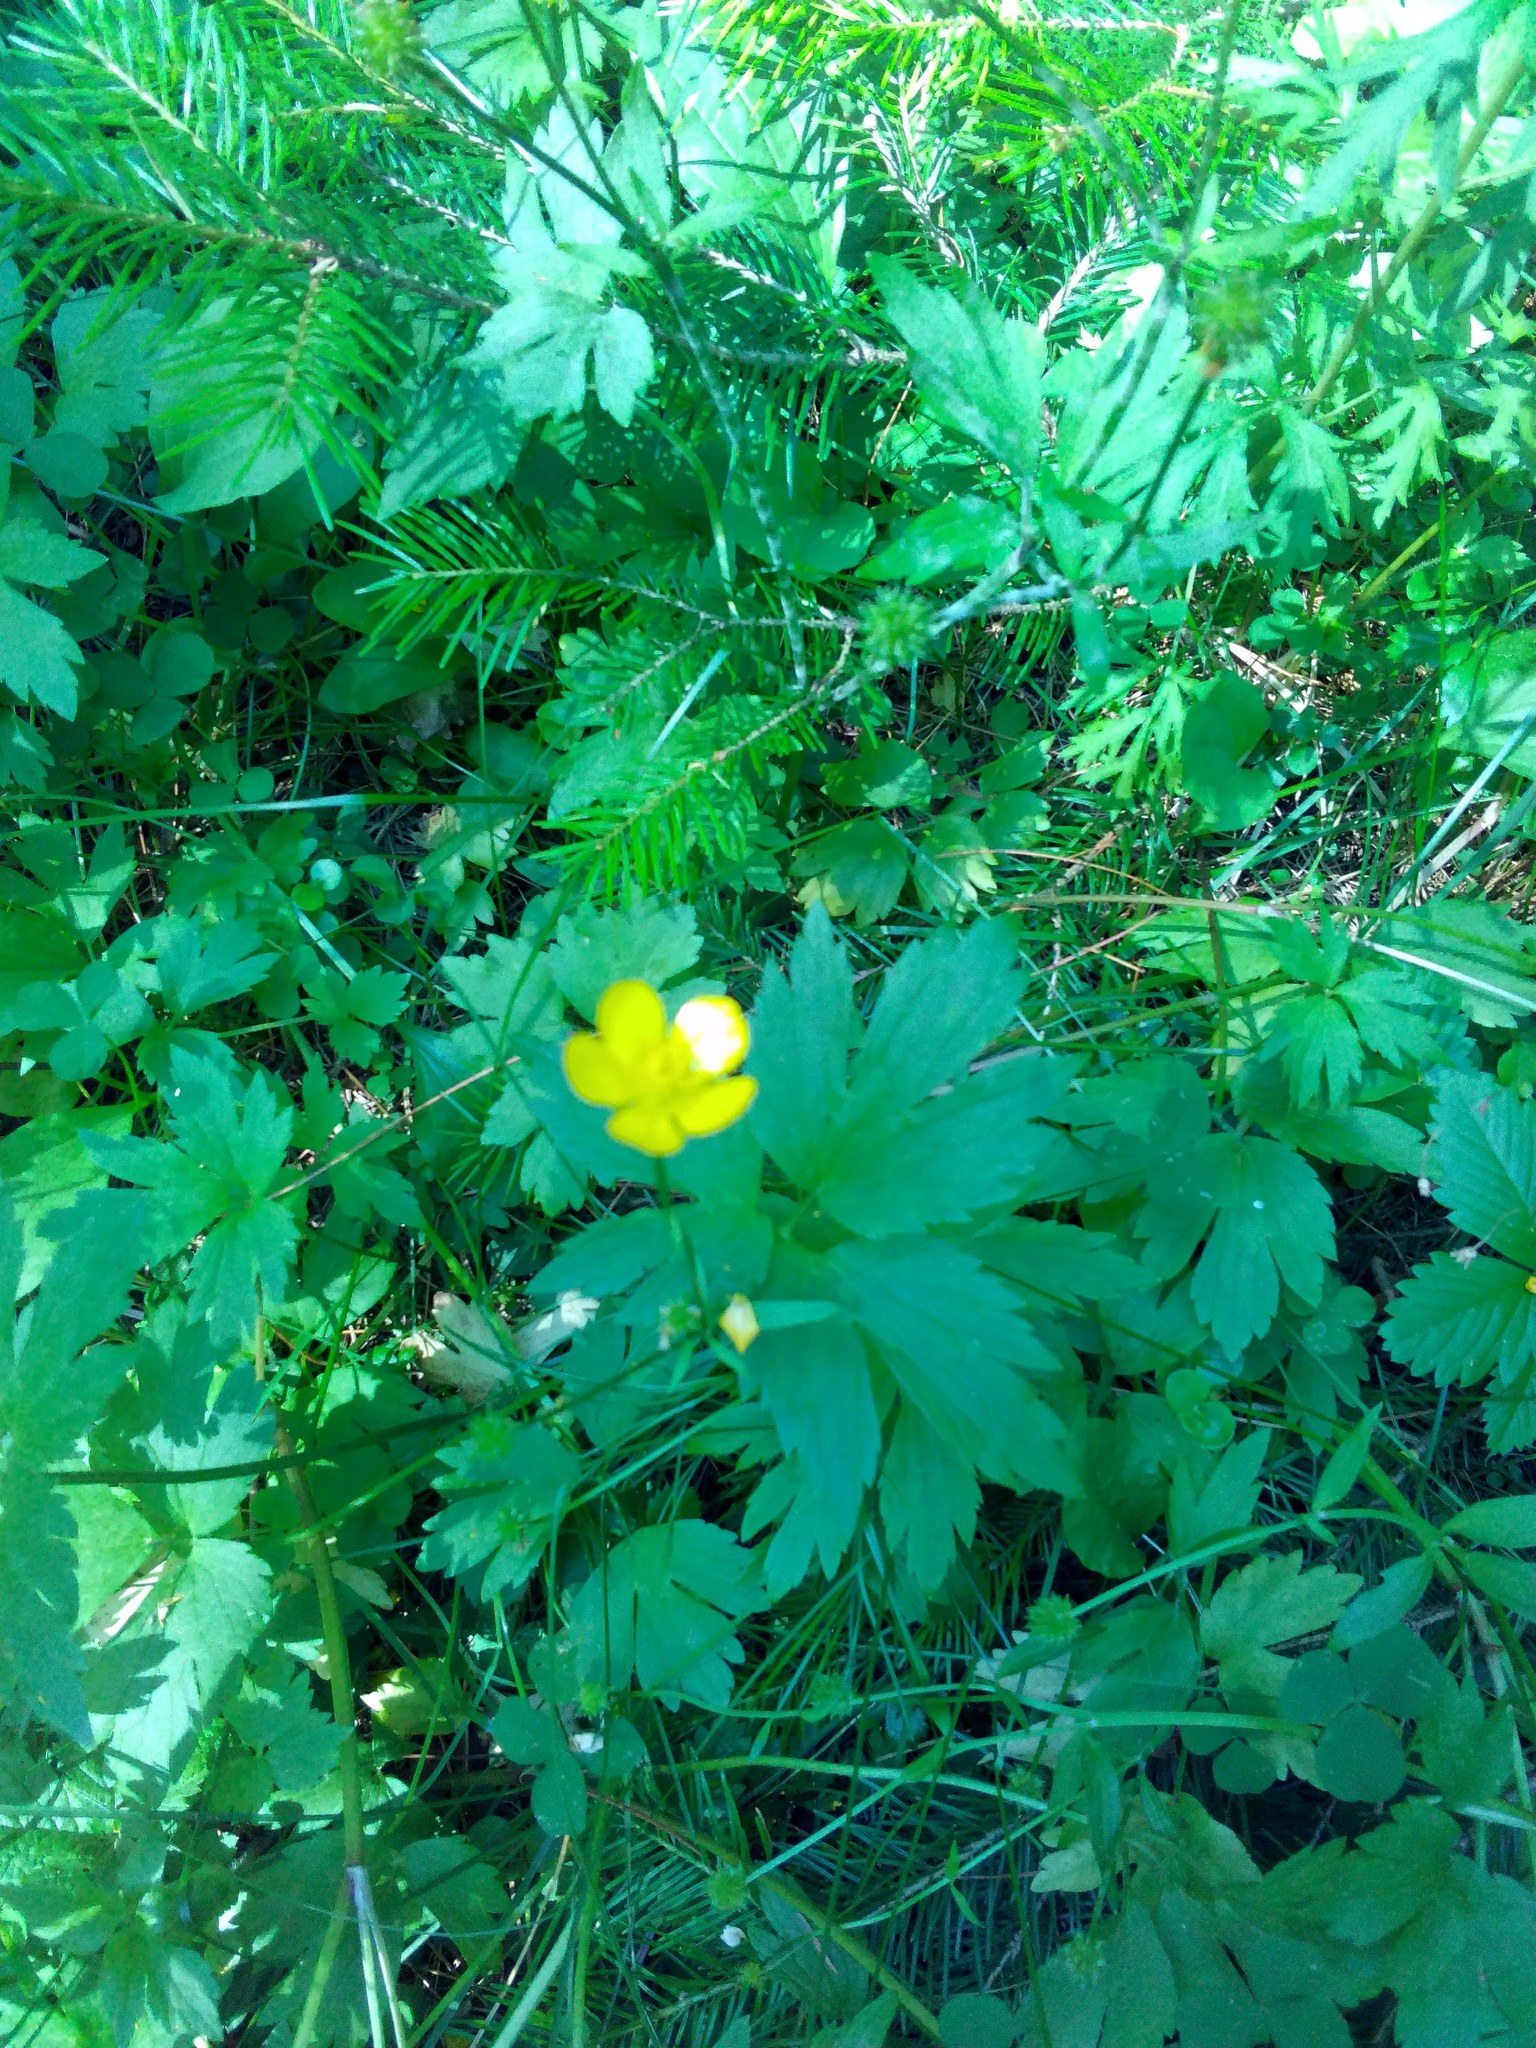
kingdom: Plantae
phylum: Tracheophyta
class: Magnoliopsida
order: Ranunculales
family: Ranunculaceae
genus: Ranunculus
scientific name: Ranunculus repens
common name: Creeping buttercup
